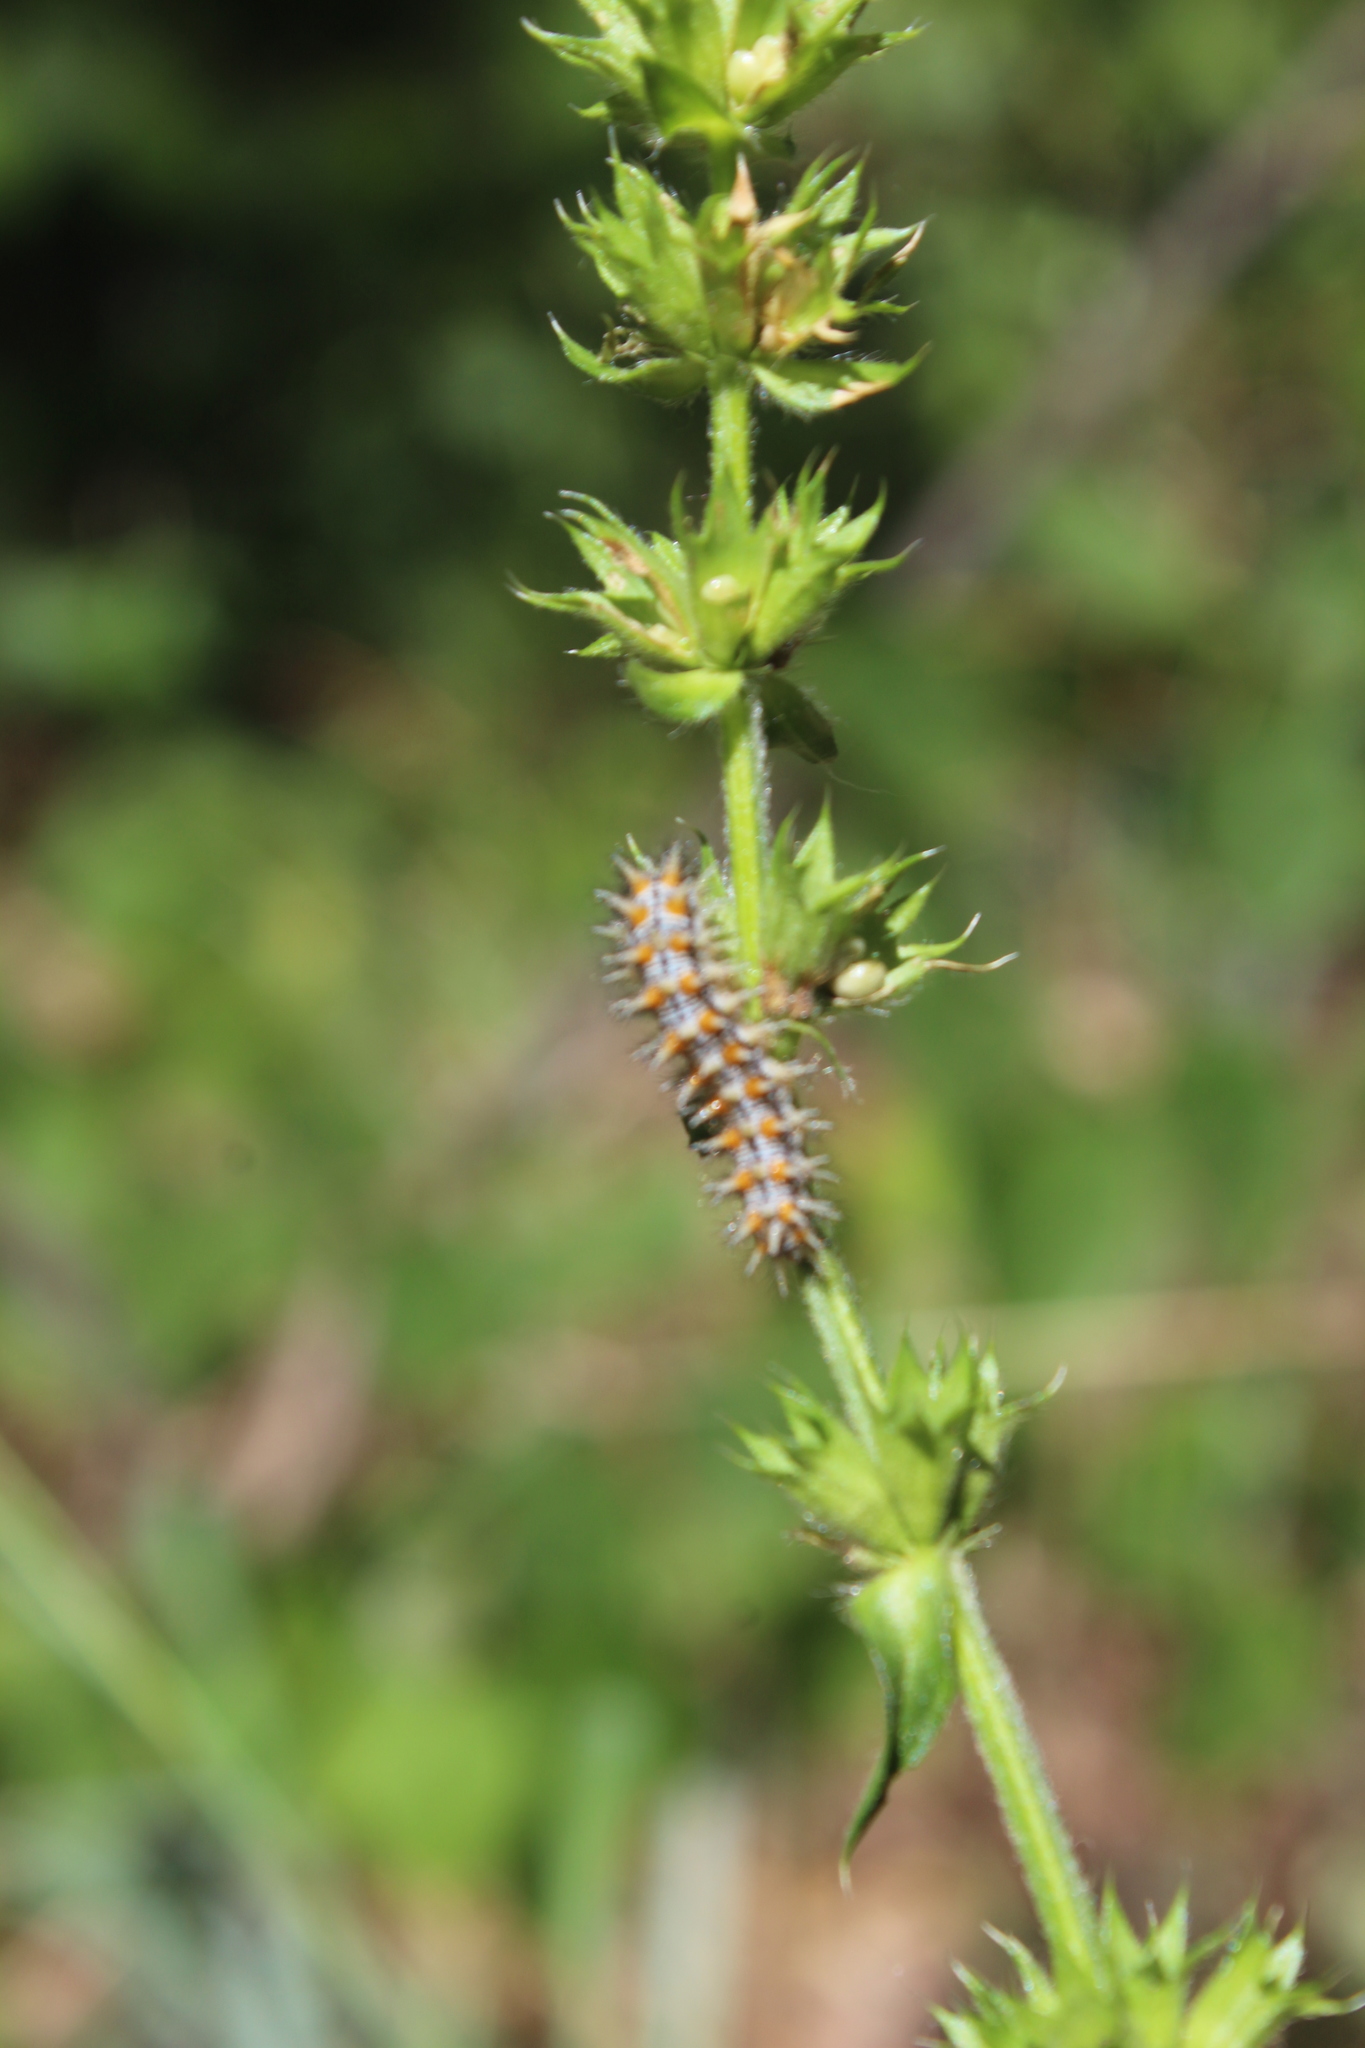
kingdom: Animalia
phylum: Arthropoda
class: Insecta
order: Lepidoptera
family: Nymphalidae
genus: Melitaea
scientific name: Melitaea didyma
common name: Spotted fritillary
